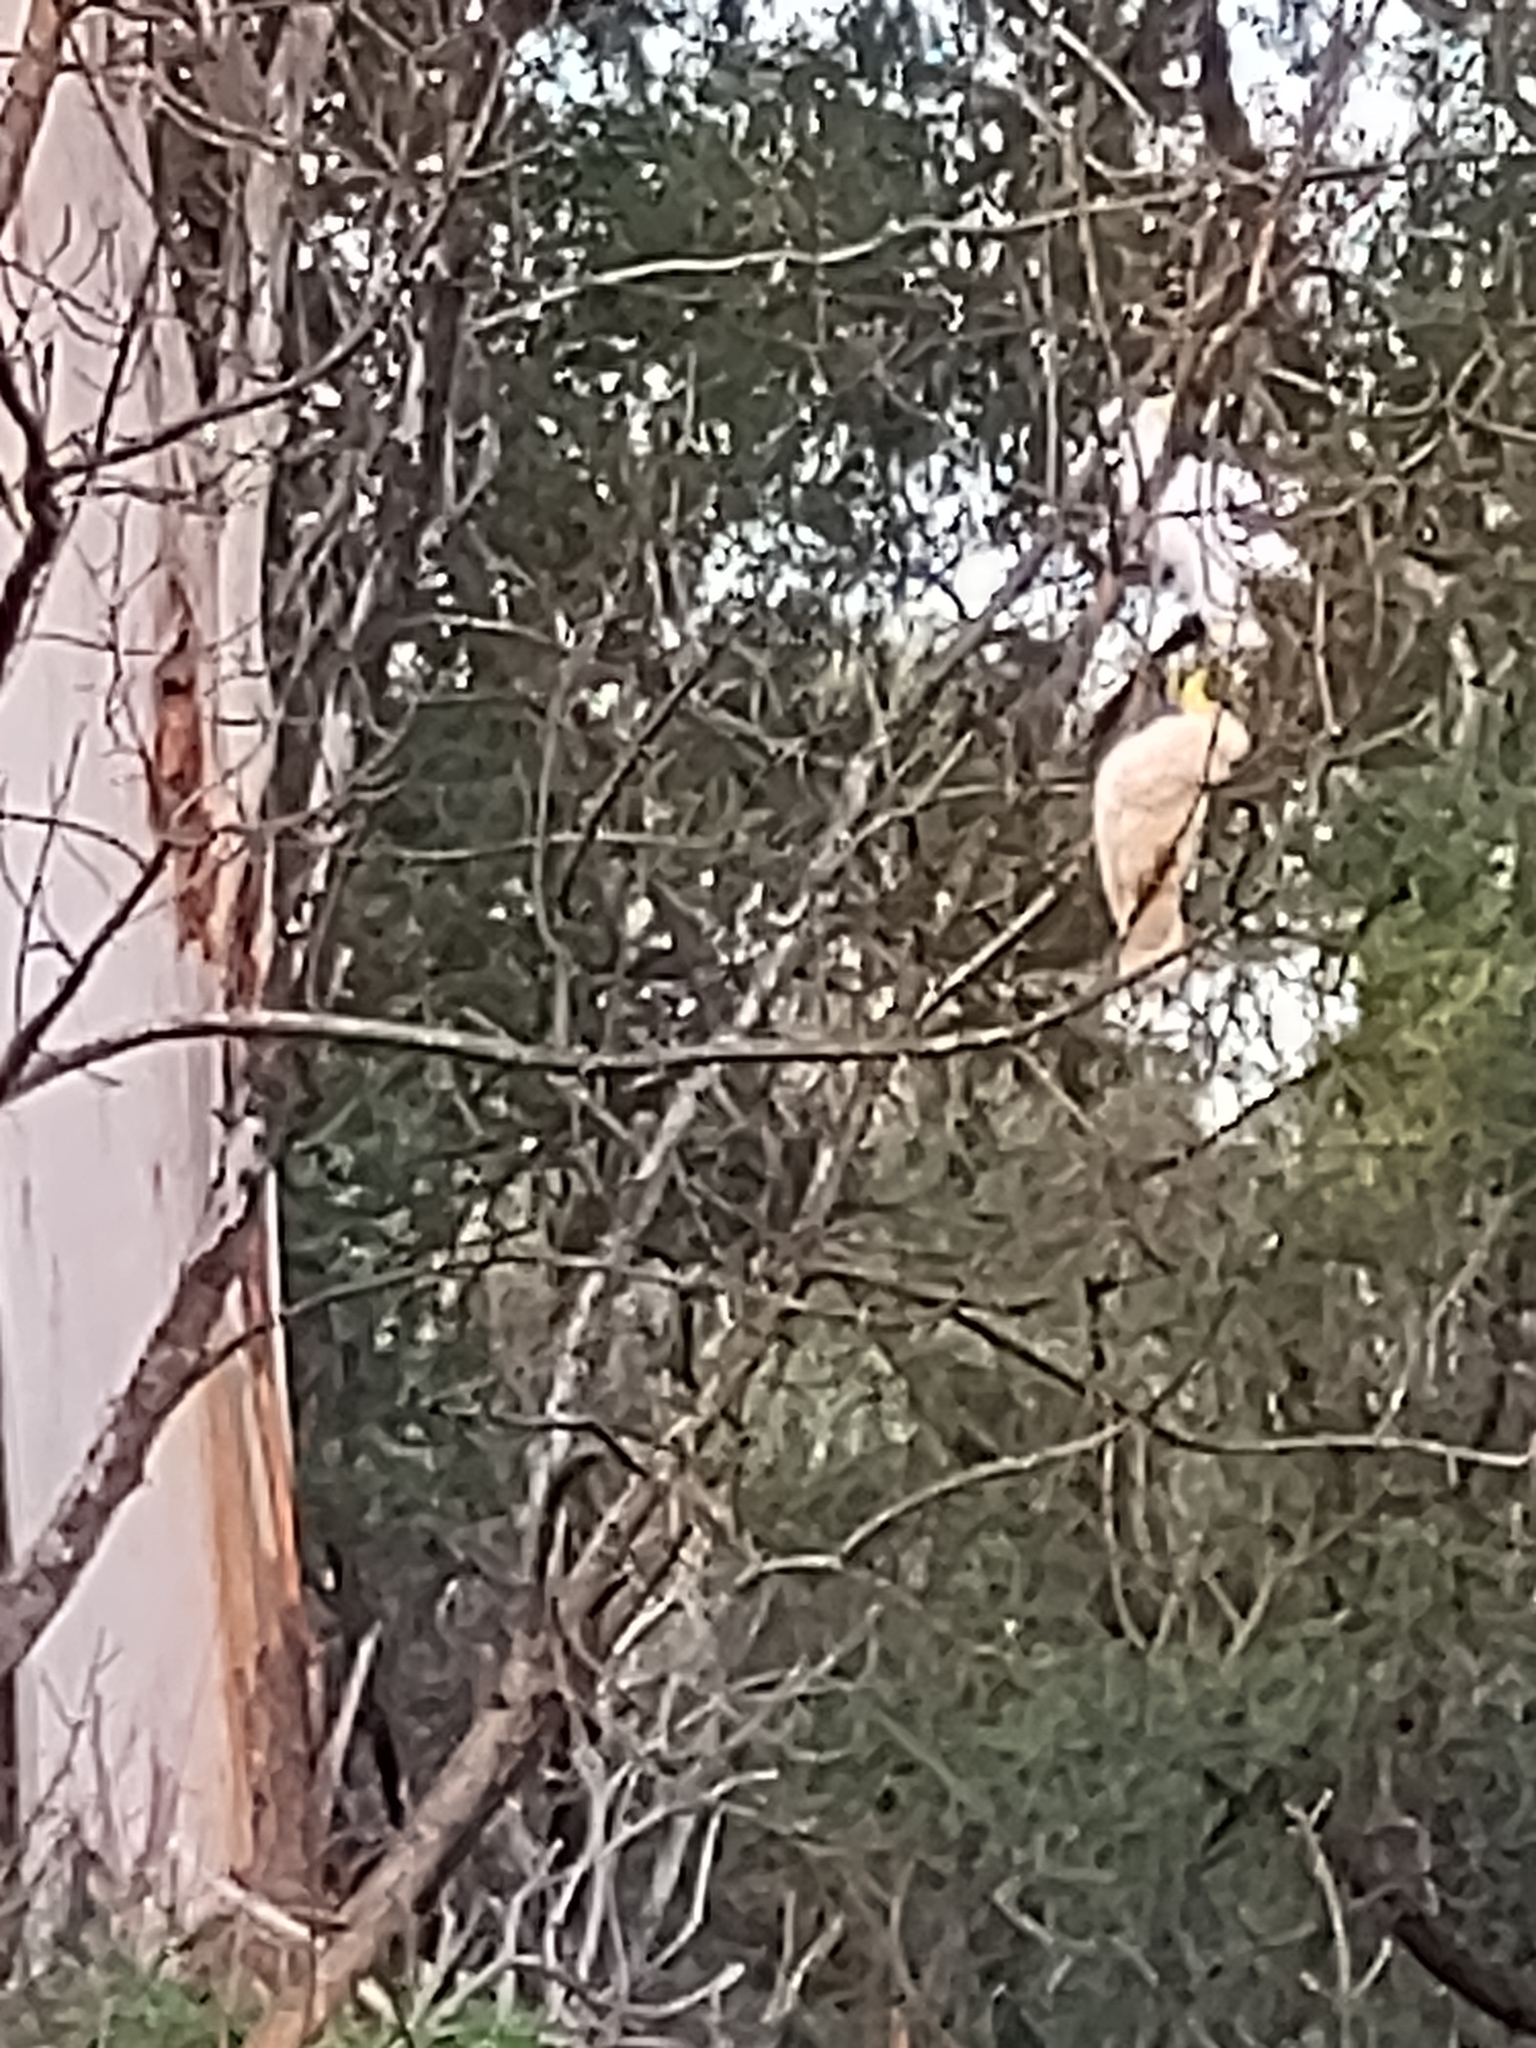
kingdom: Animalia
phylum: Chordata
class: Aves
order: Psittaciformes
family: Psittacidae
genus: Cacatua
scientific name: Cacatua galerita
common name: Sulphur-crested cockatoo
